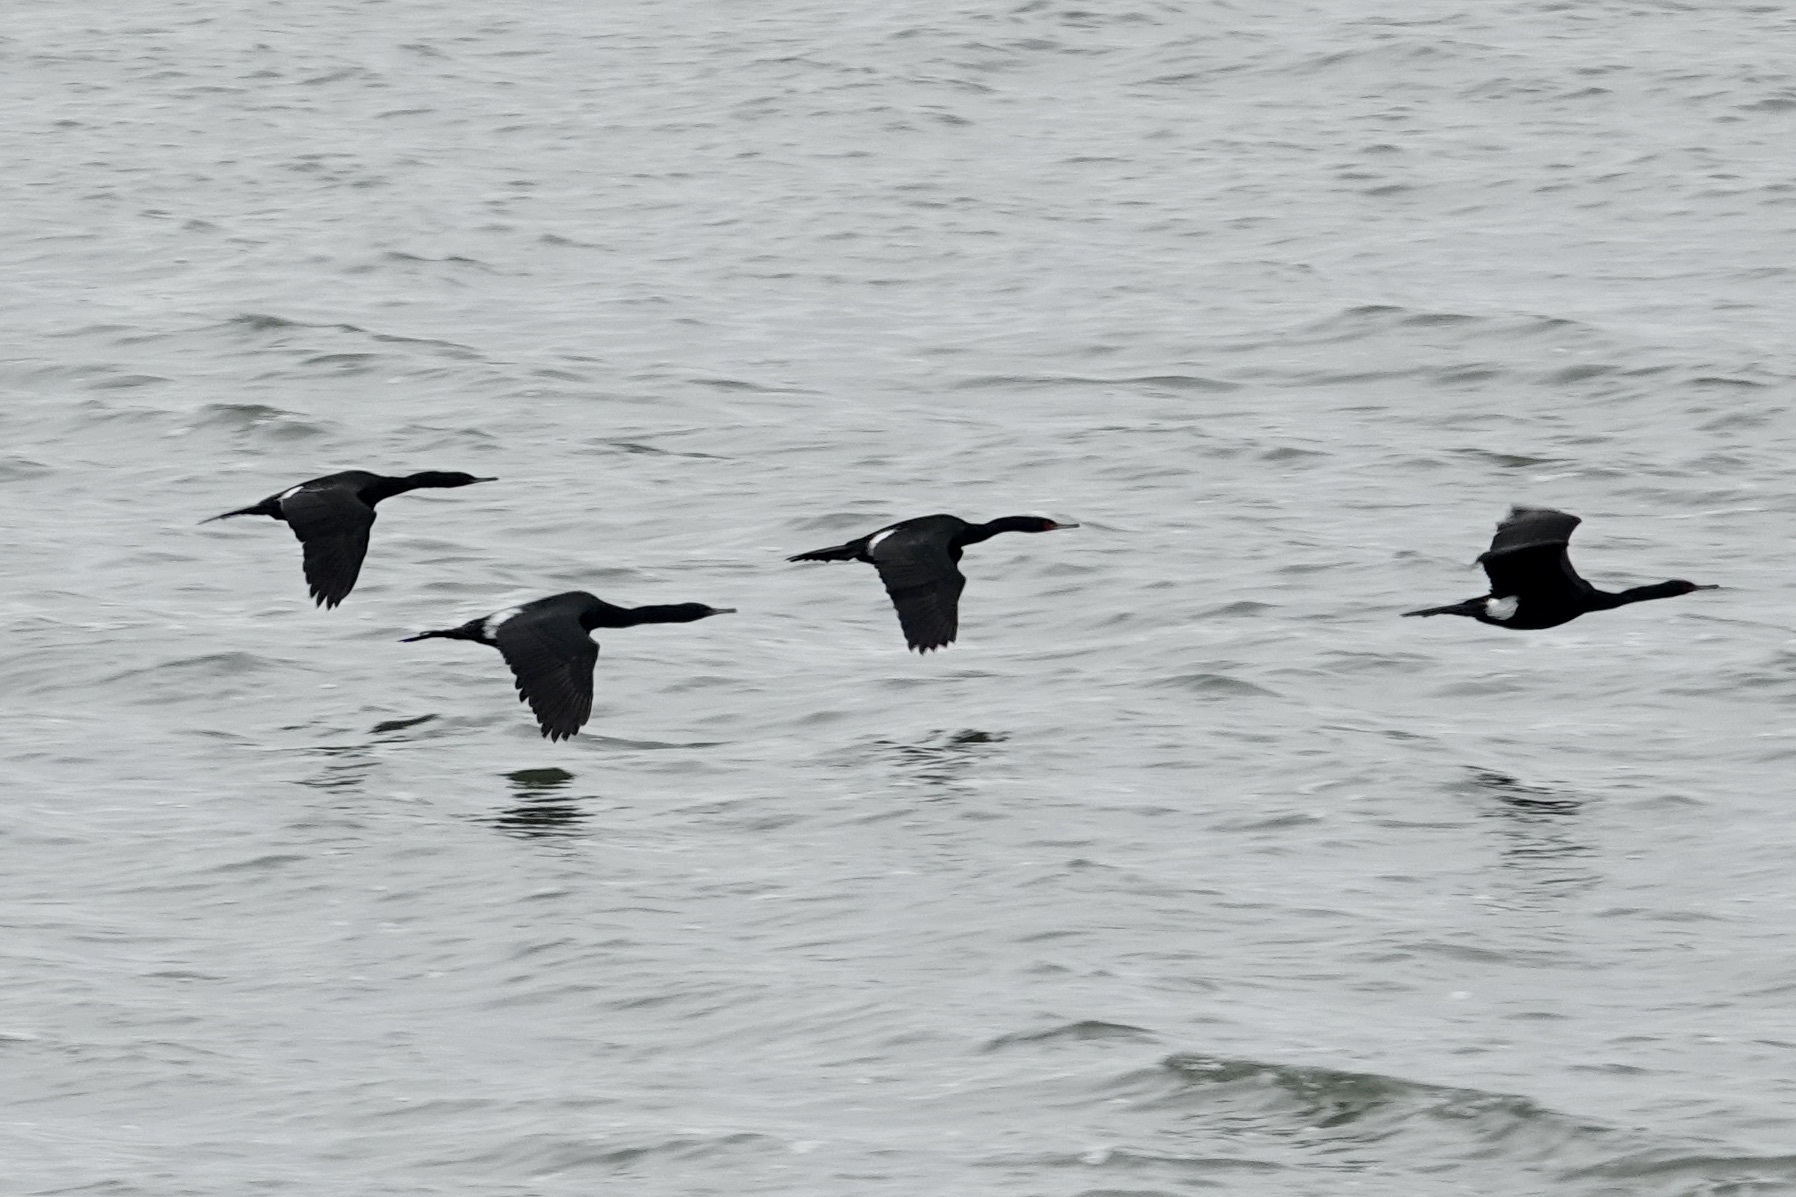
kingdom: Animalia
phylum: Chordata
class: Aves
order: Suliformes
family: Phalacrocoracidae
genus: Phalacrocorax
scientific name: Phalacrocorax pelagicus
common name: Pelagic cormorant
